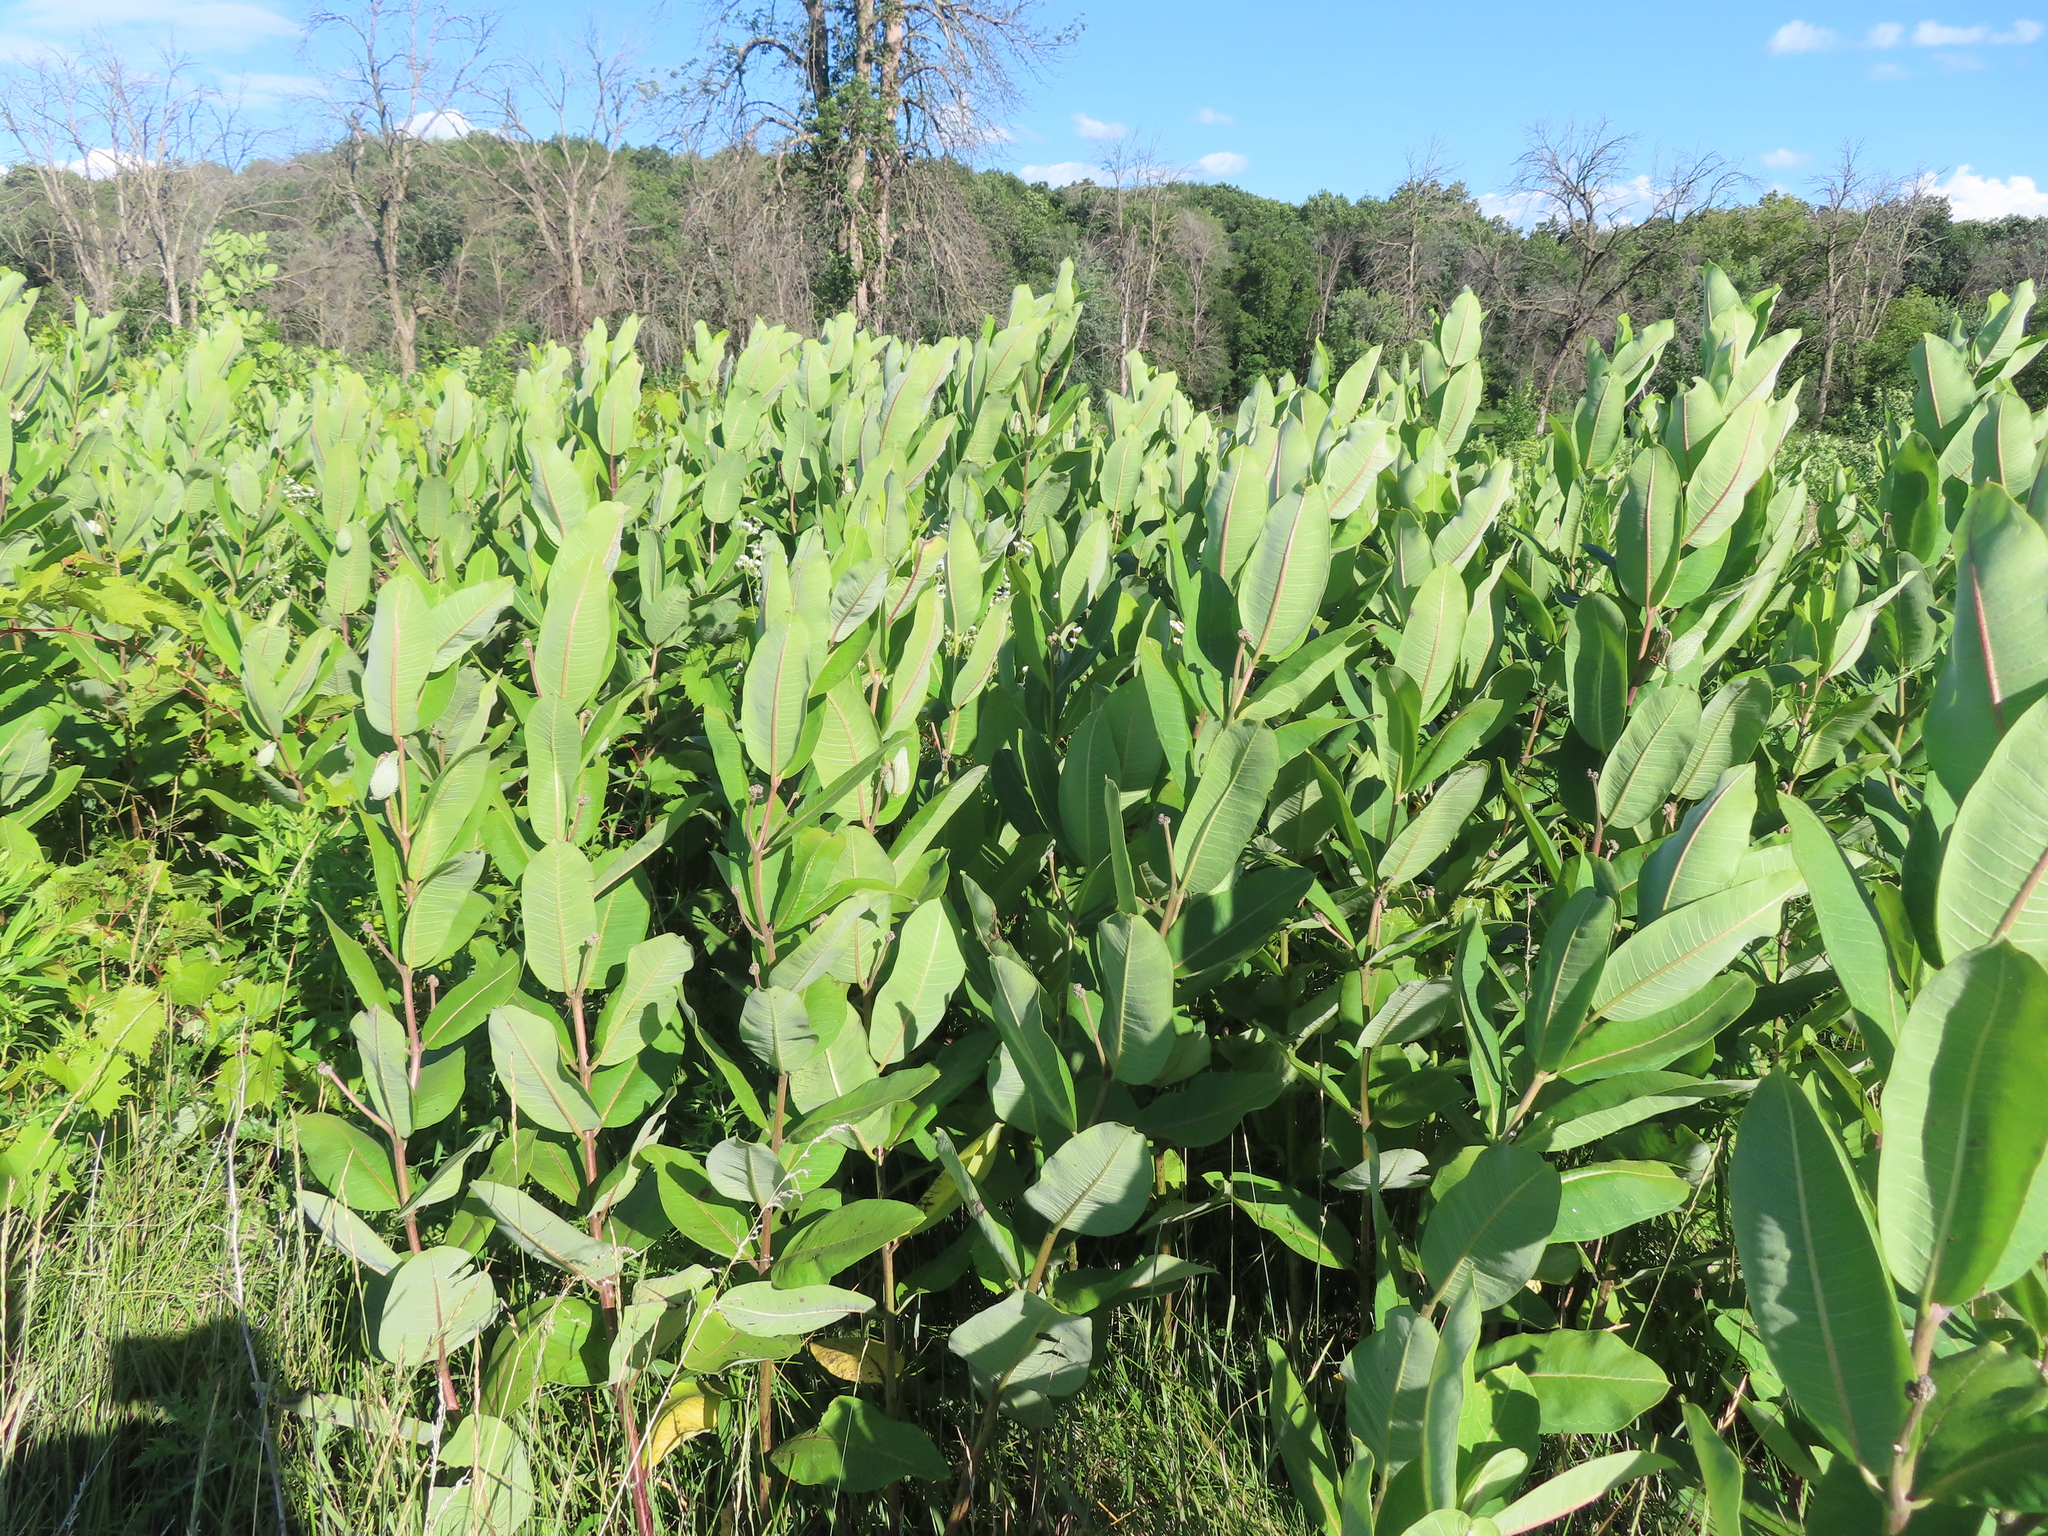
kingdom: Plantae
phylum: Tracheophyta
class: Magnoliopsida
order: Gentianales
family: Apocynaceae
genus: Asclepias
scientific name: Asclepias syriaca
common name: Common milkweed
